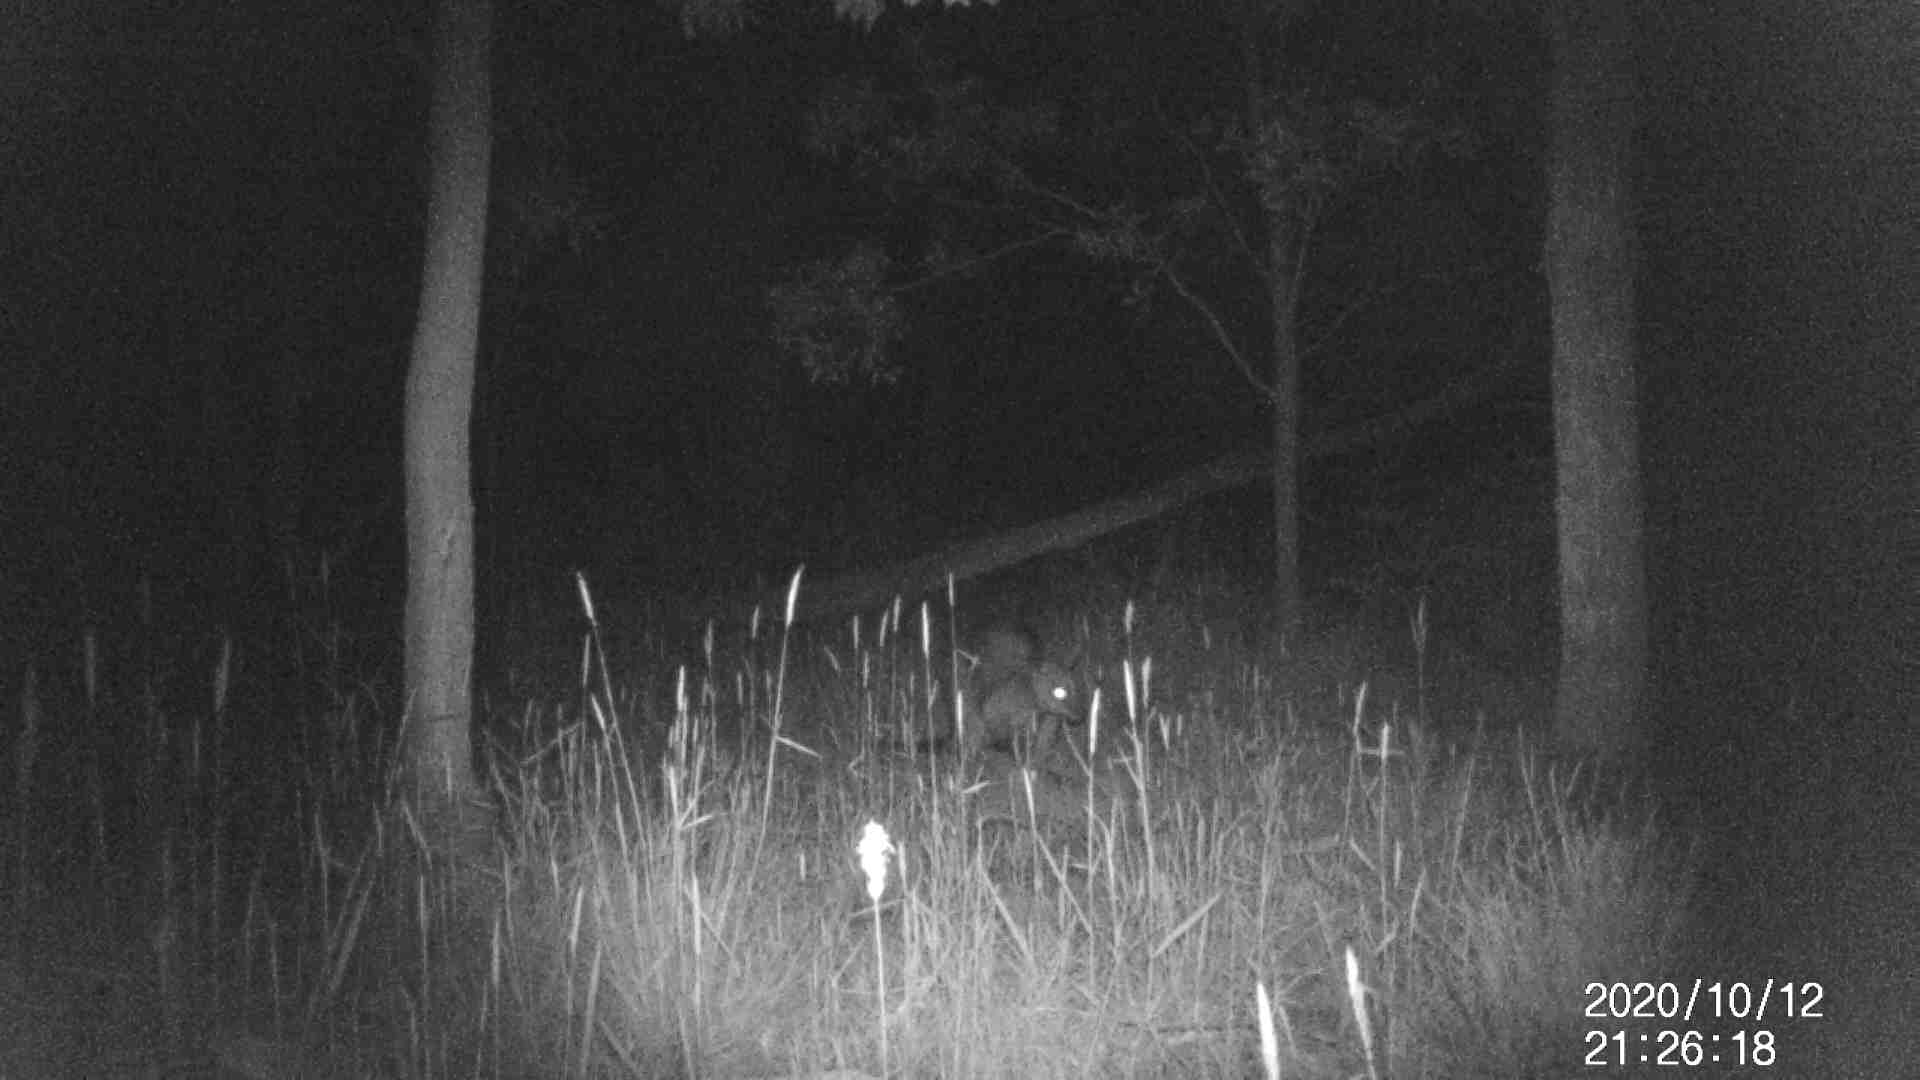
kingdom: Animalia
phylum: Chordata
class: Mammalia
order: Diprotodontia
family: Macropodidae
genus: Wallabia
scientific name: Wallabia bicolor
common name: Swamp wallaby
